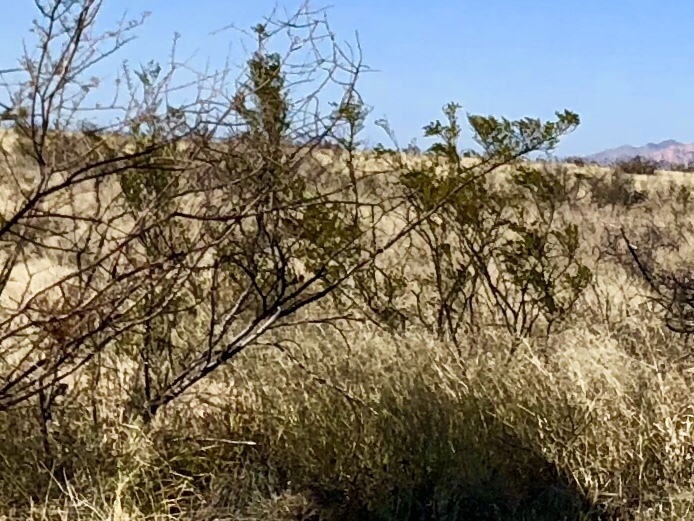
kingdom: Plantae
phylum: Tracheophyta
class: Magnoliopsida
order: Zygophyllales
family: Zygophyllaceae
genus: Larrea
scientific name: Larrea tridentata
